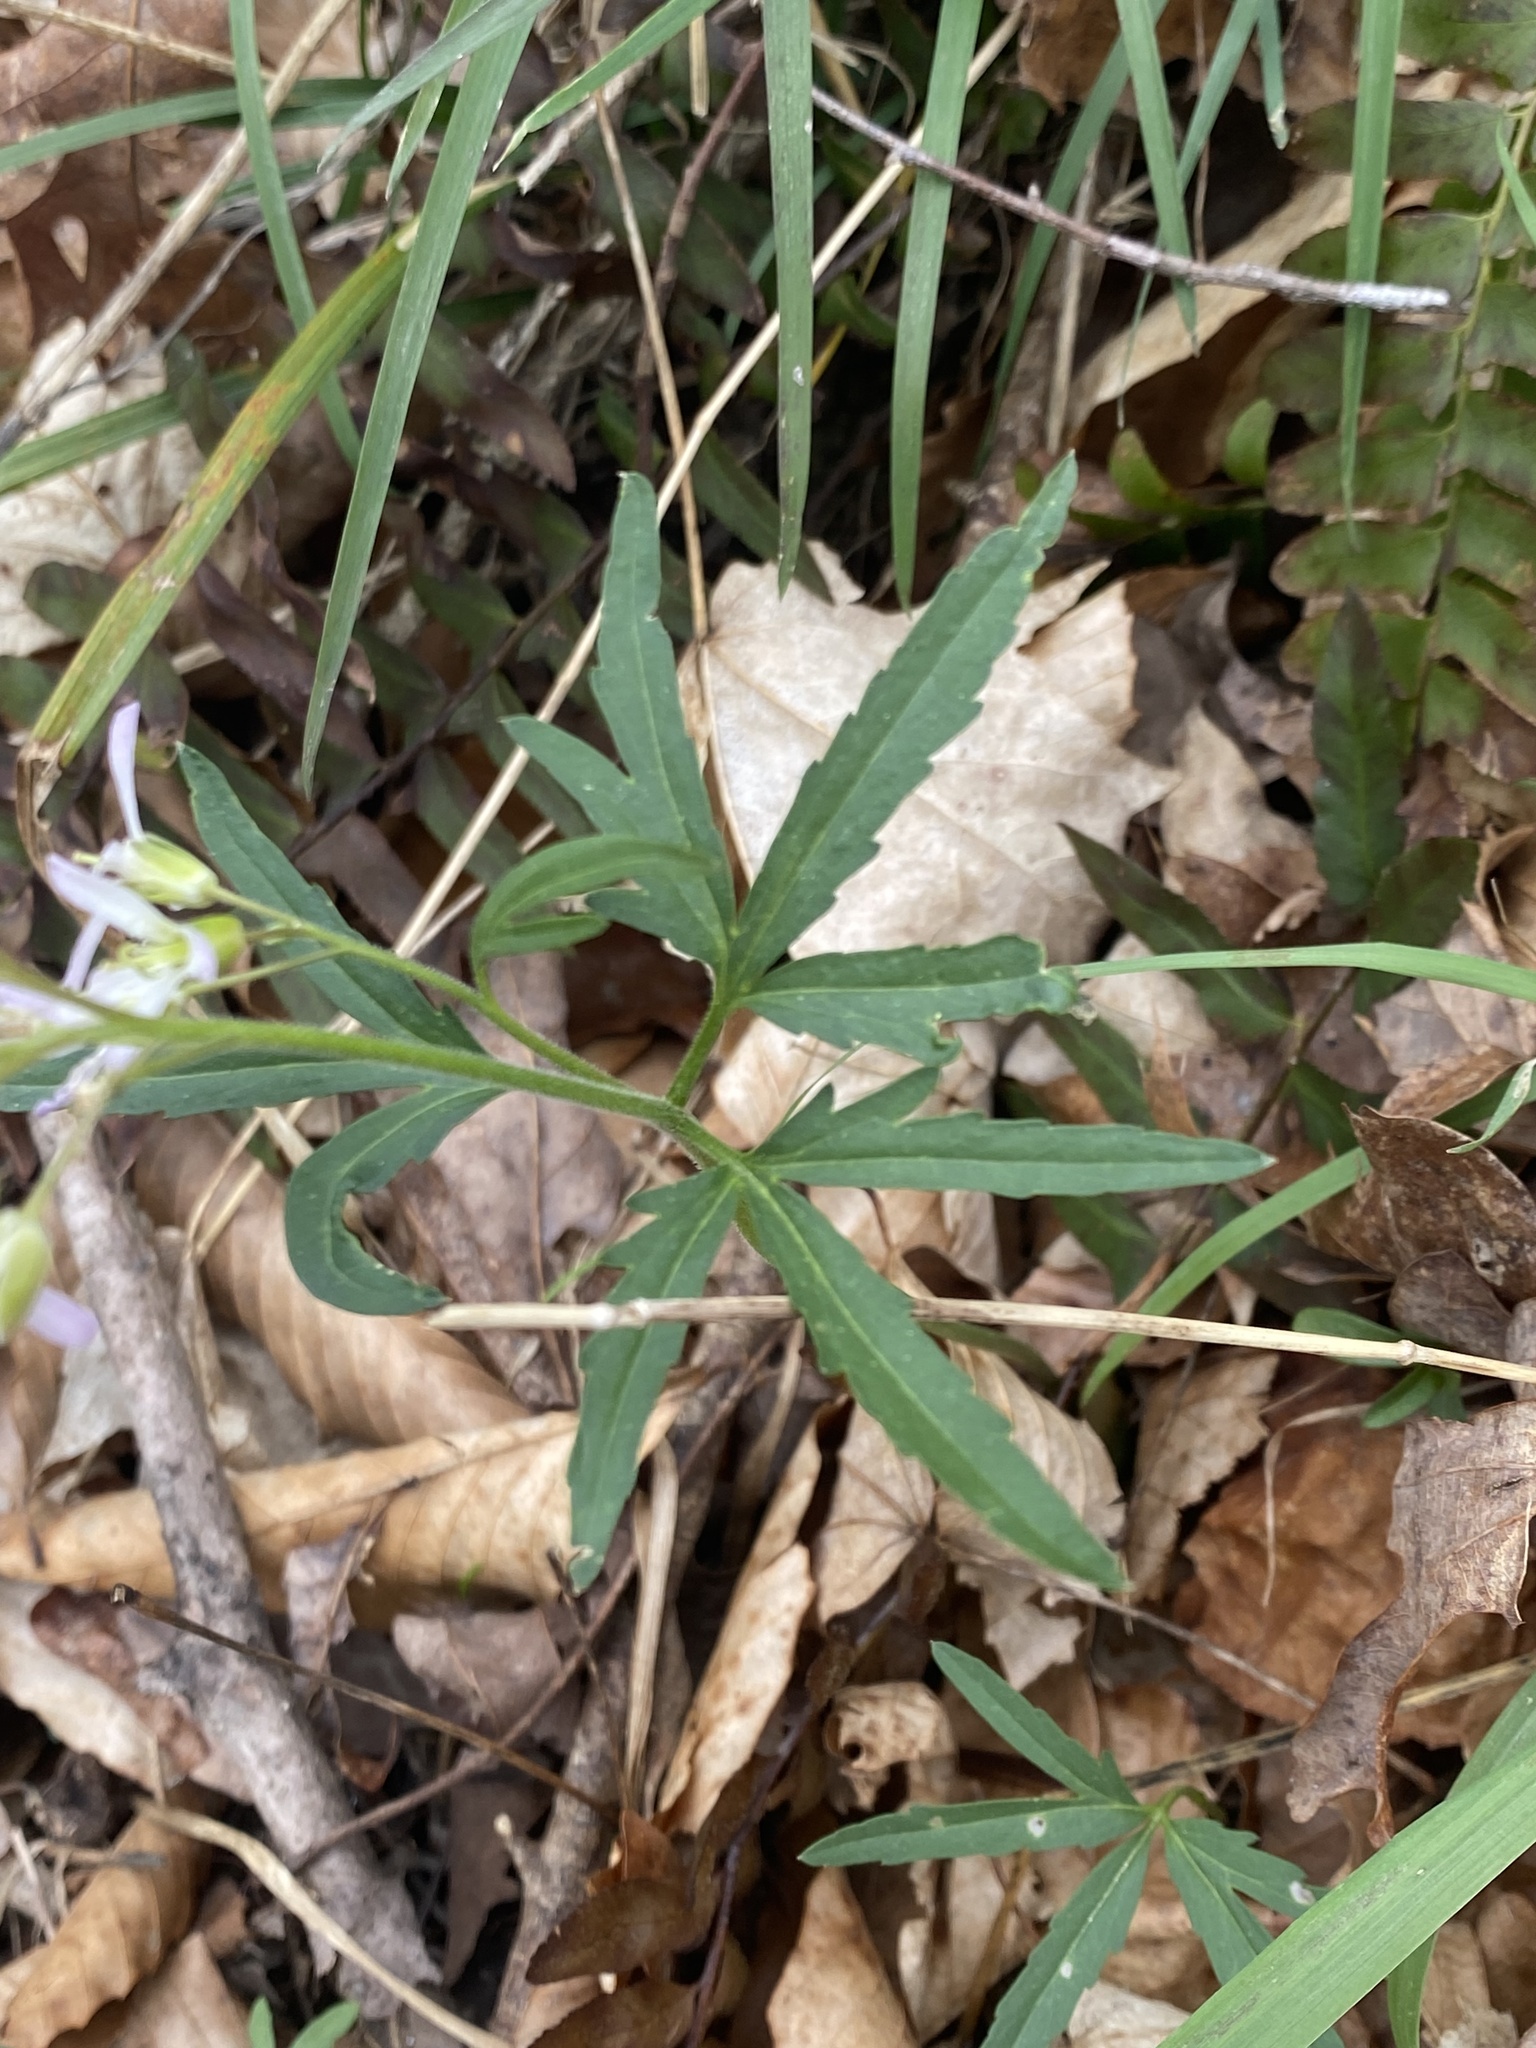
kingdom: Plantae
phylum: Tracheophyta
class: Magnoliopsida
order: Brassicales
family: Brassicaceae
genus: Cardamine
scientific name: Cardamine concatenata
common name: Cut-leaf toothcup
